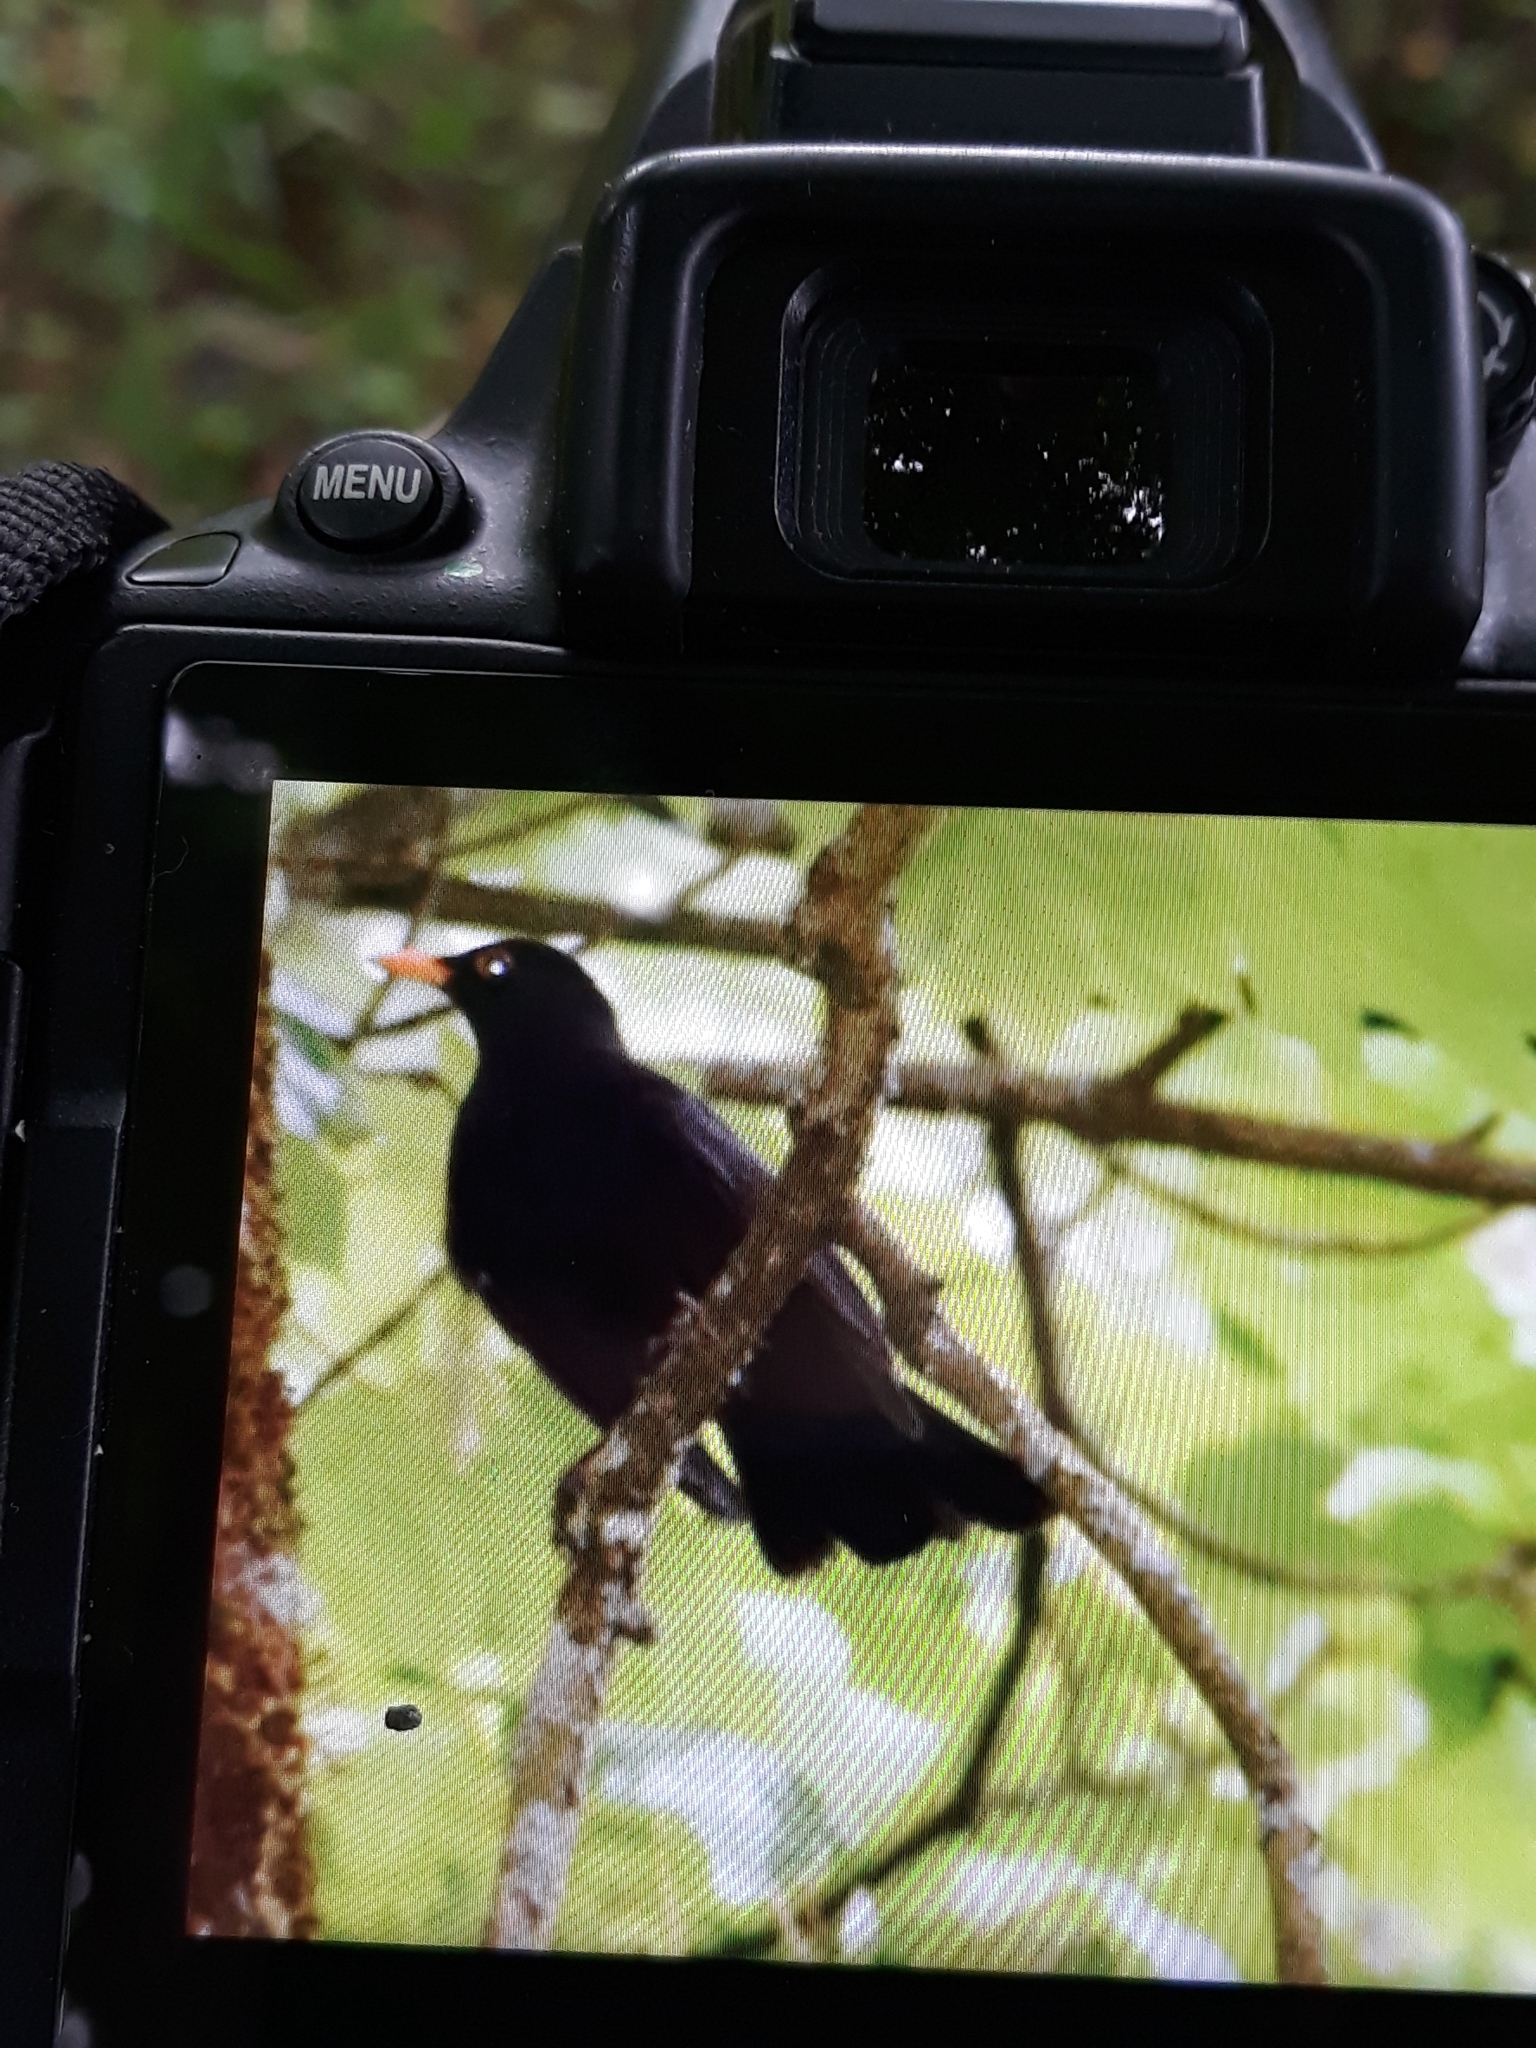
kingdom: Animalia
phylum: Chordata
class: Aves
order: Passeriformes
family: Turdidae
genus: Turdus
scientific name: Turdus merula
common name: Common blackbird
